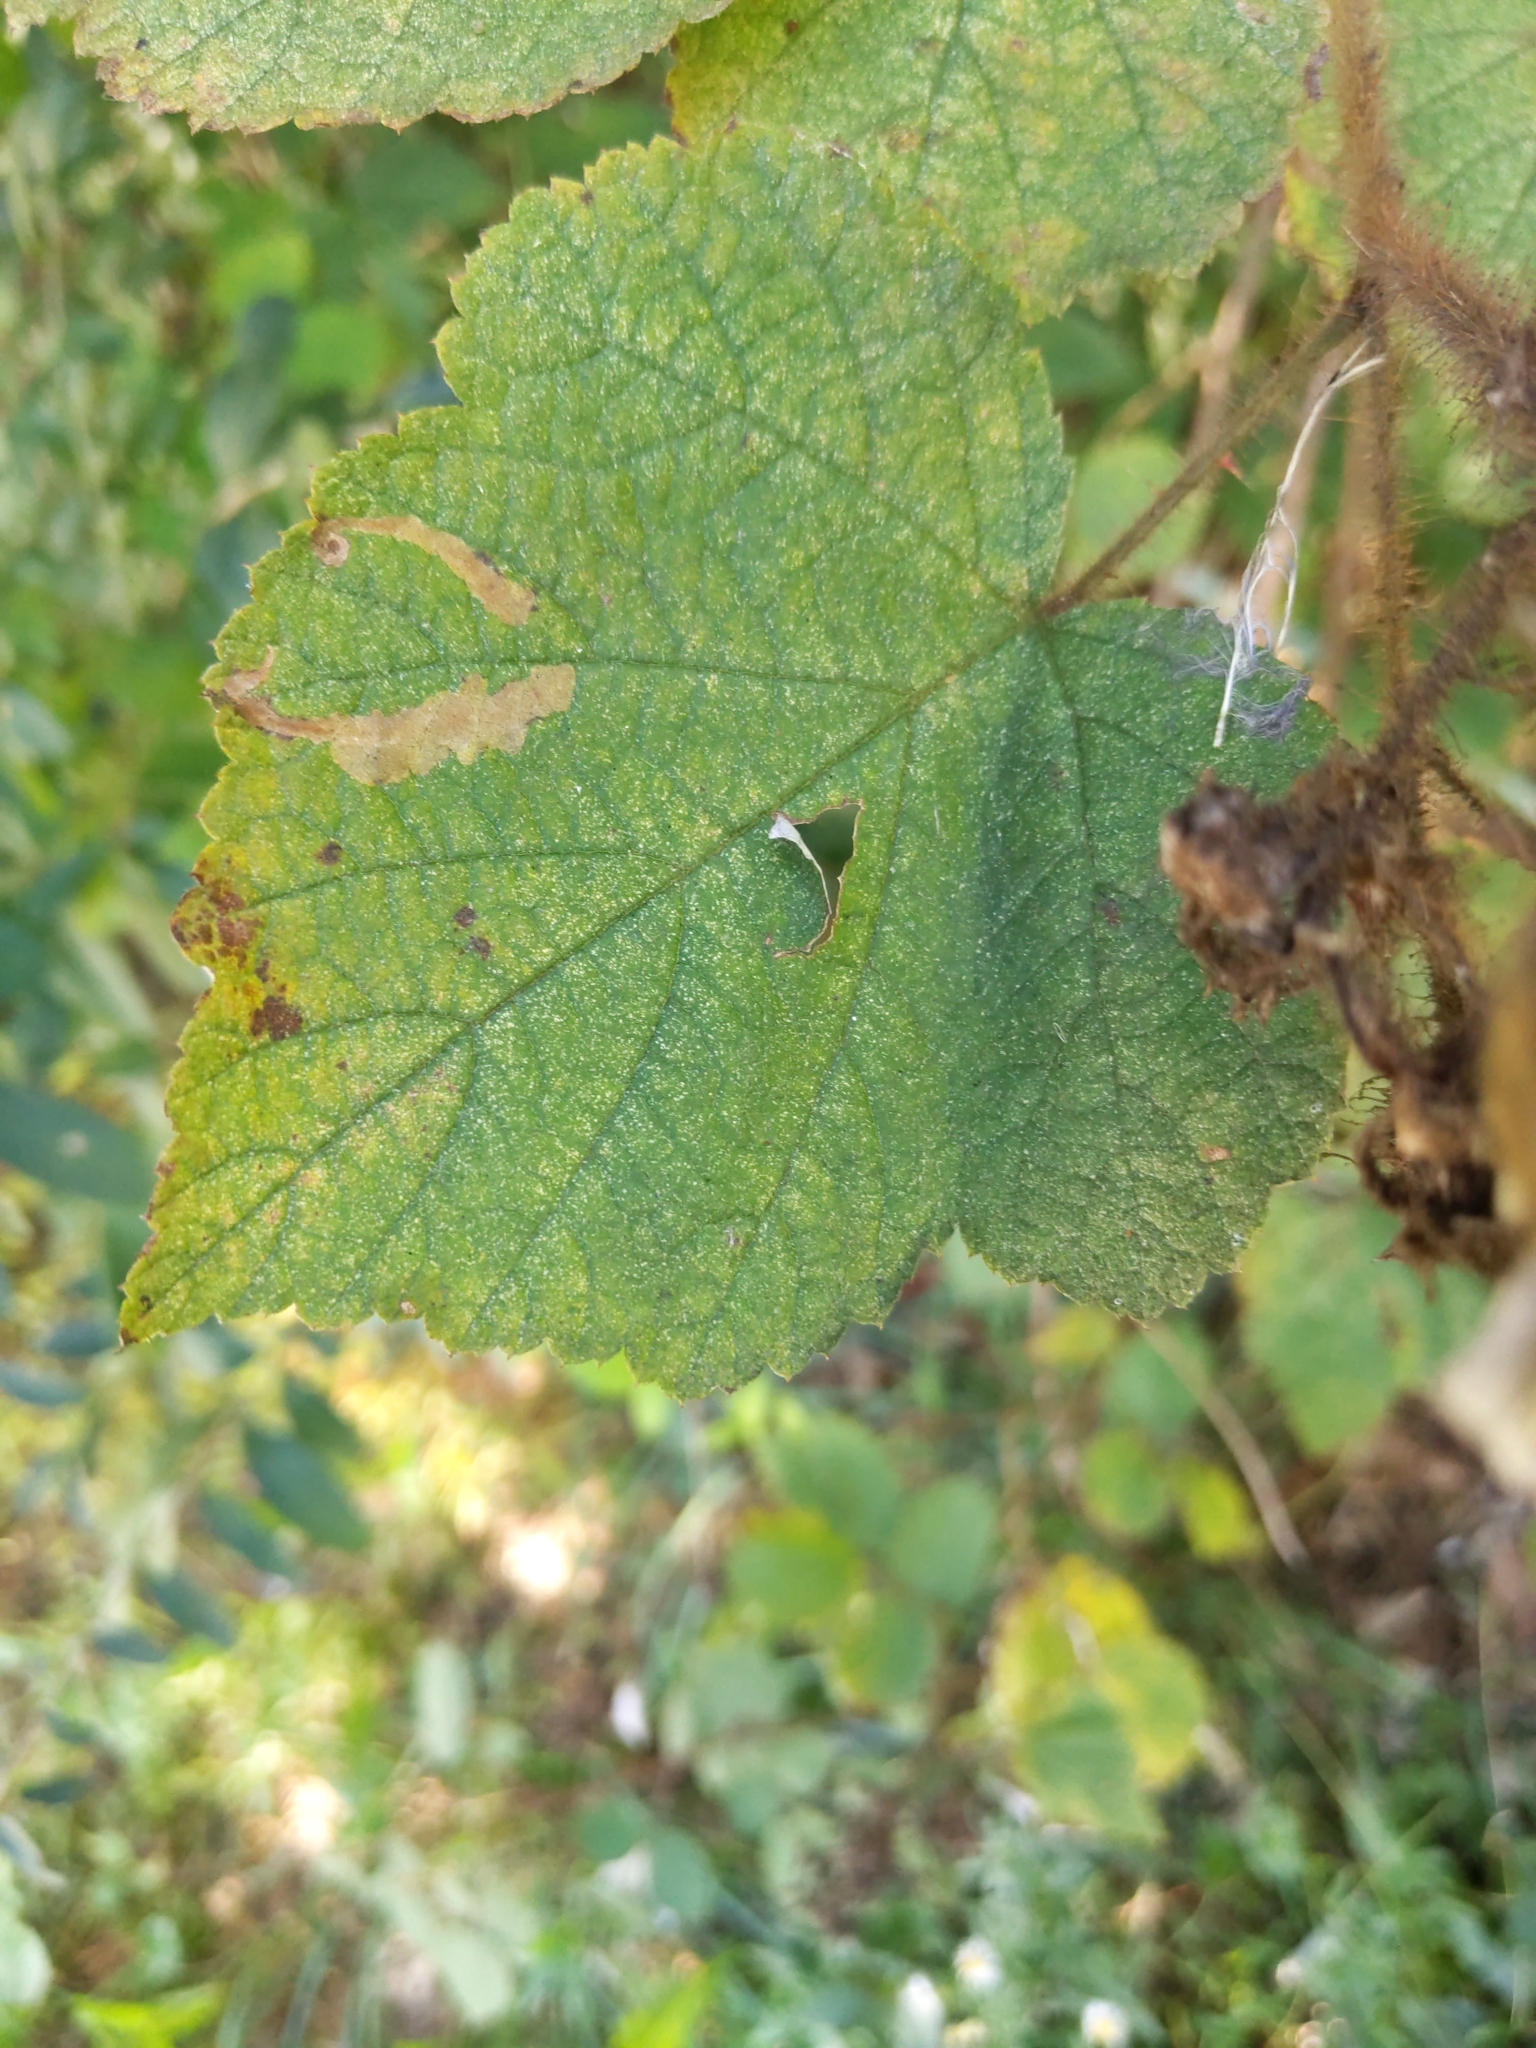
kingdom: Animalia
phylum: Arthropoda
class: Insecta
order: Lepidoptera
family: Tischeriidae
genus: Coptotriche
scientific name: Coptotriche aenea
